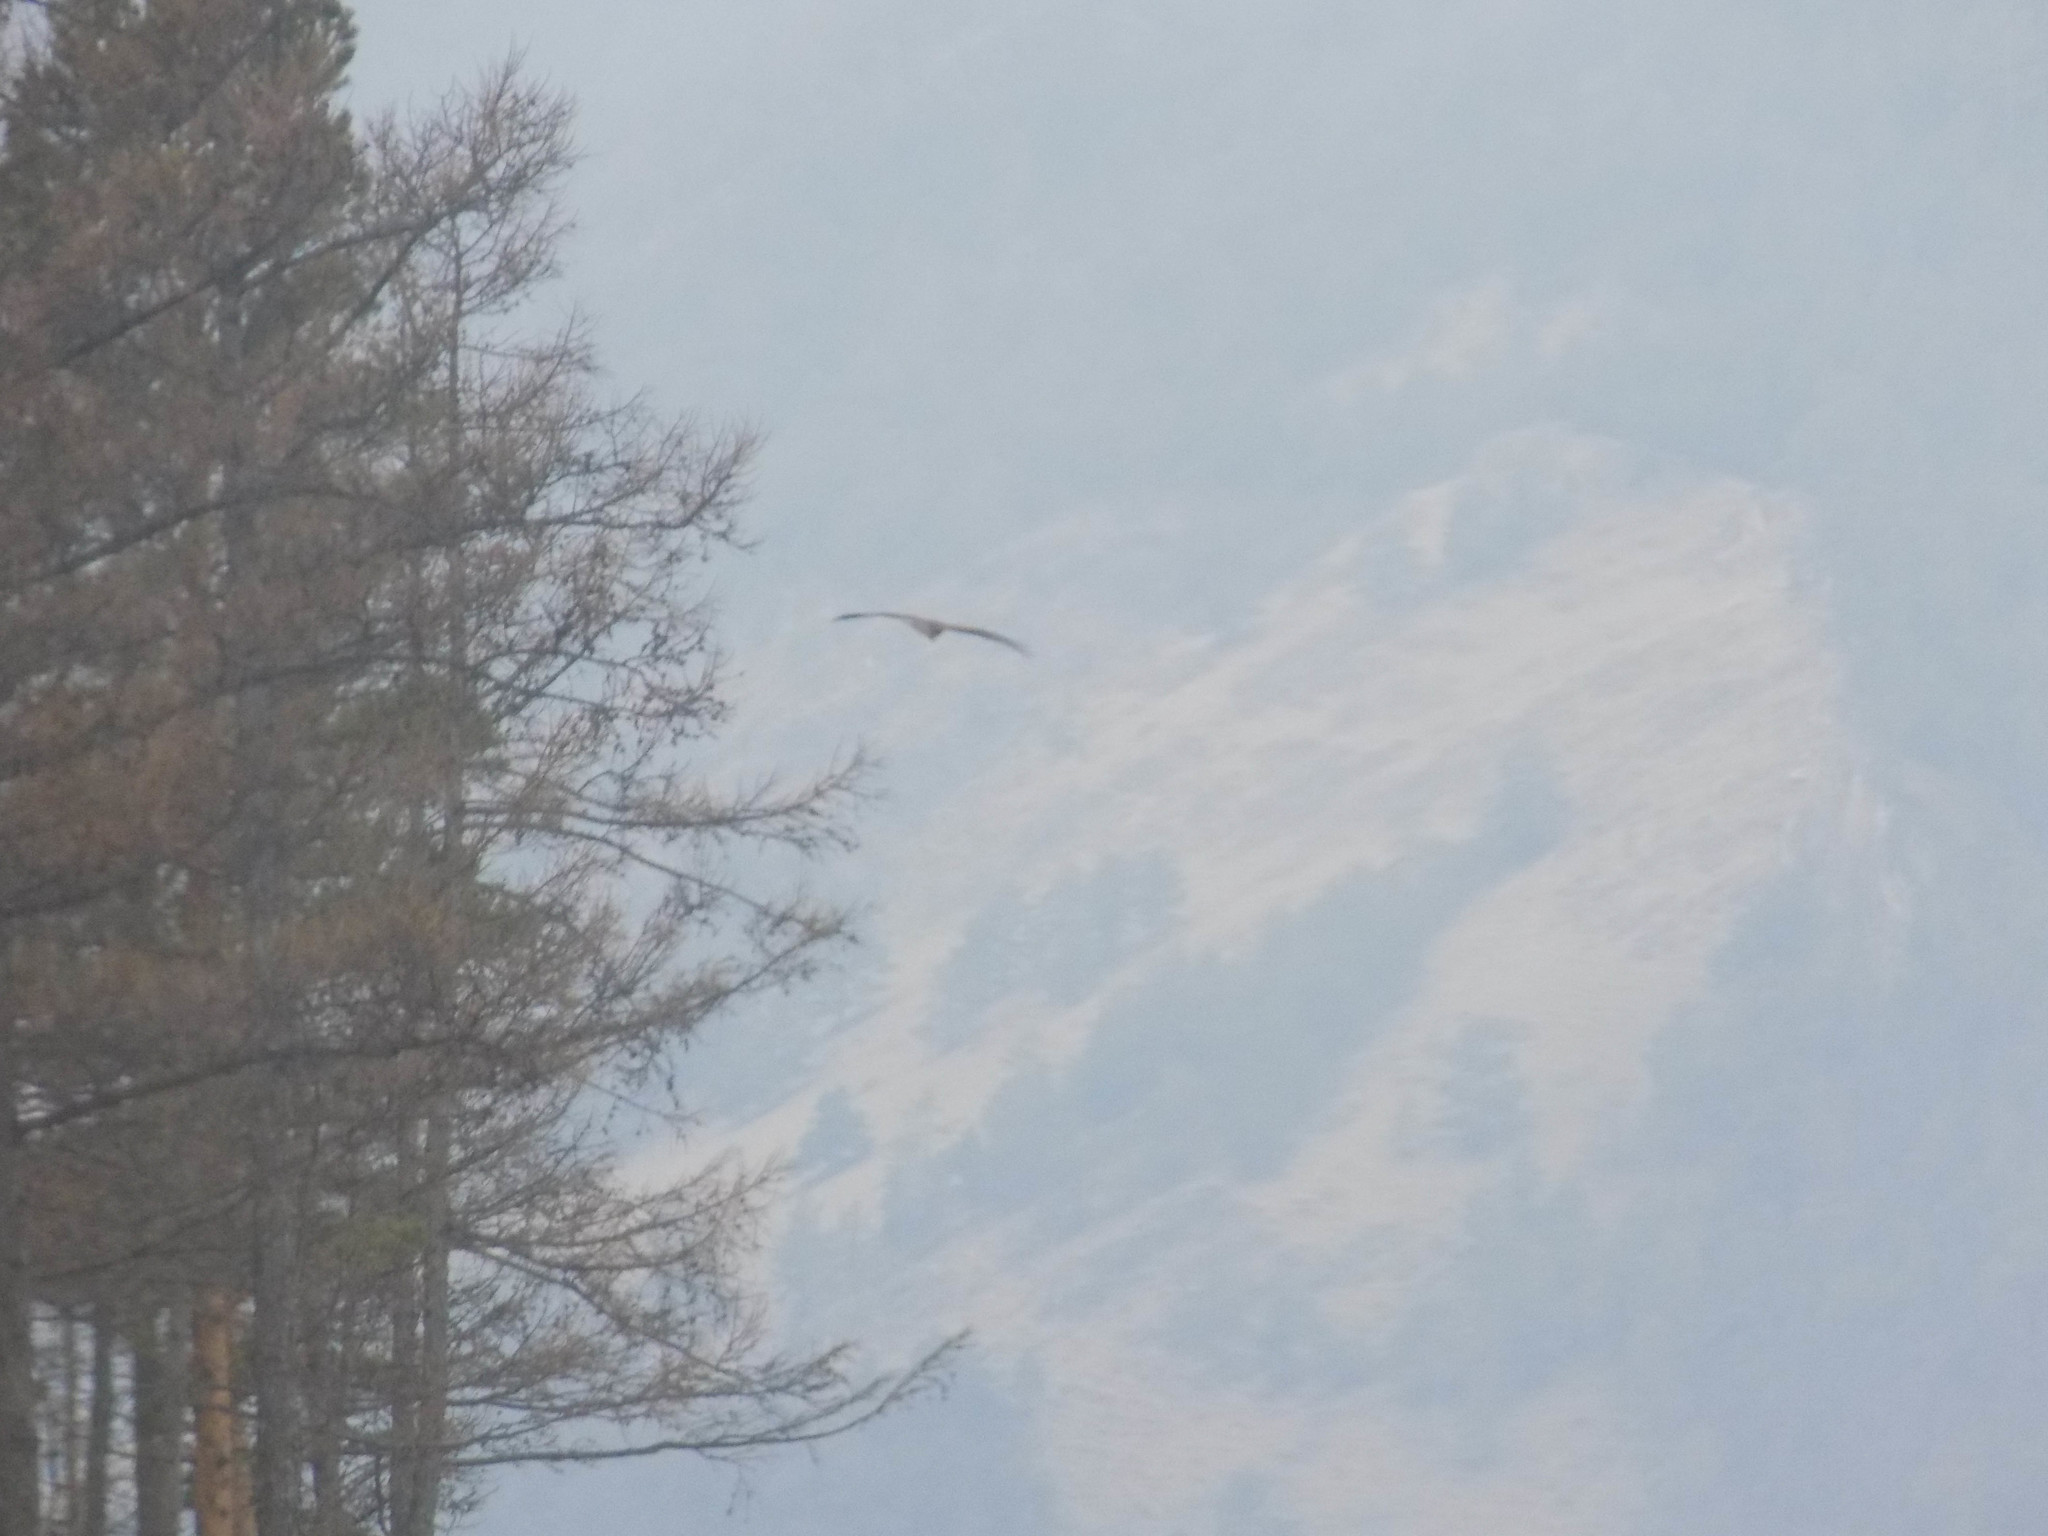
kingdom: Animalia
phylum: Chordata
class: Aves
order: Accipitriformes
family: Accipitridae
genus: Milvus
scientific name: Milvus migrans
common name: Black kite
